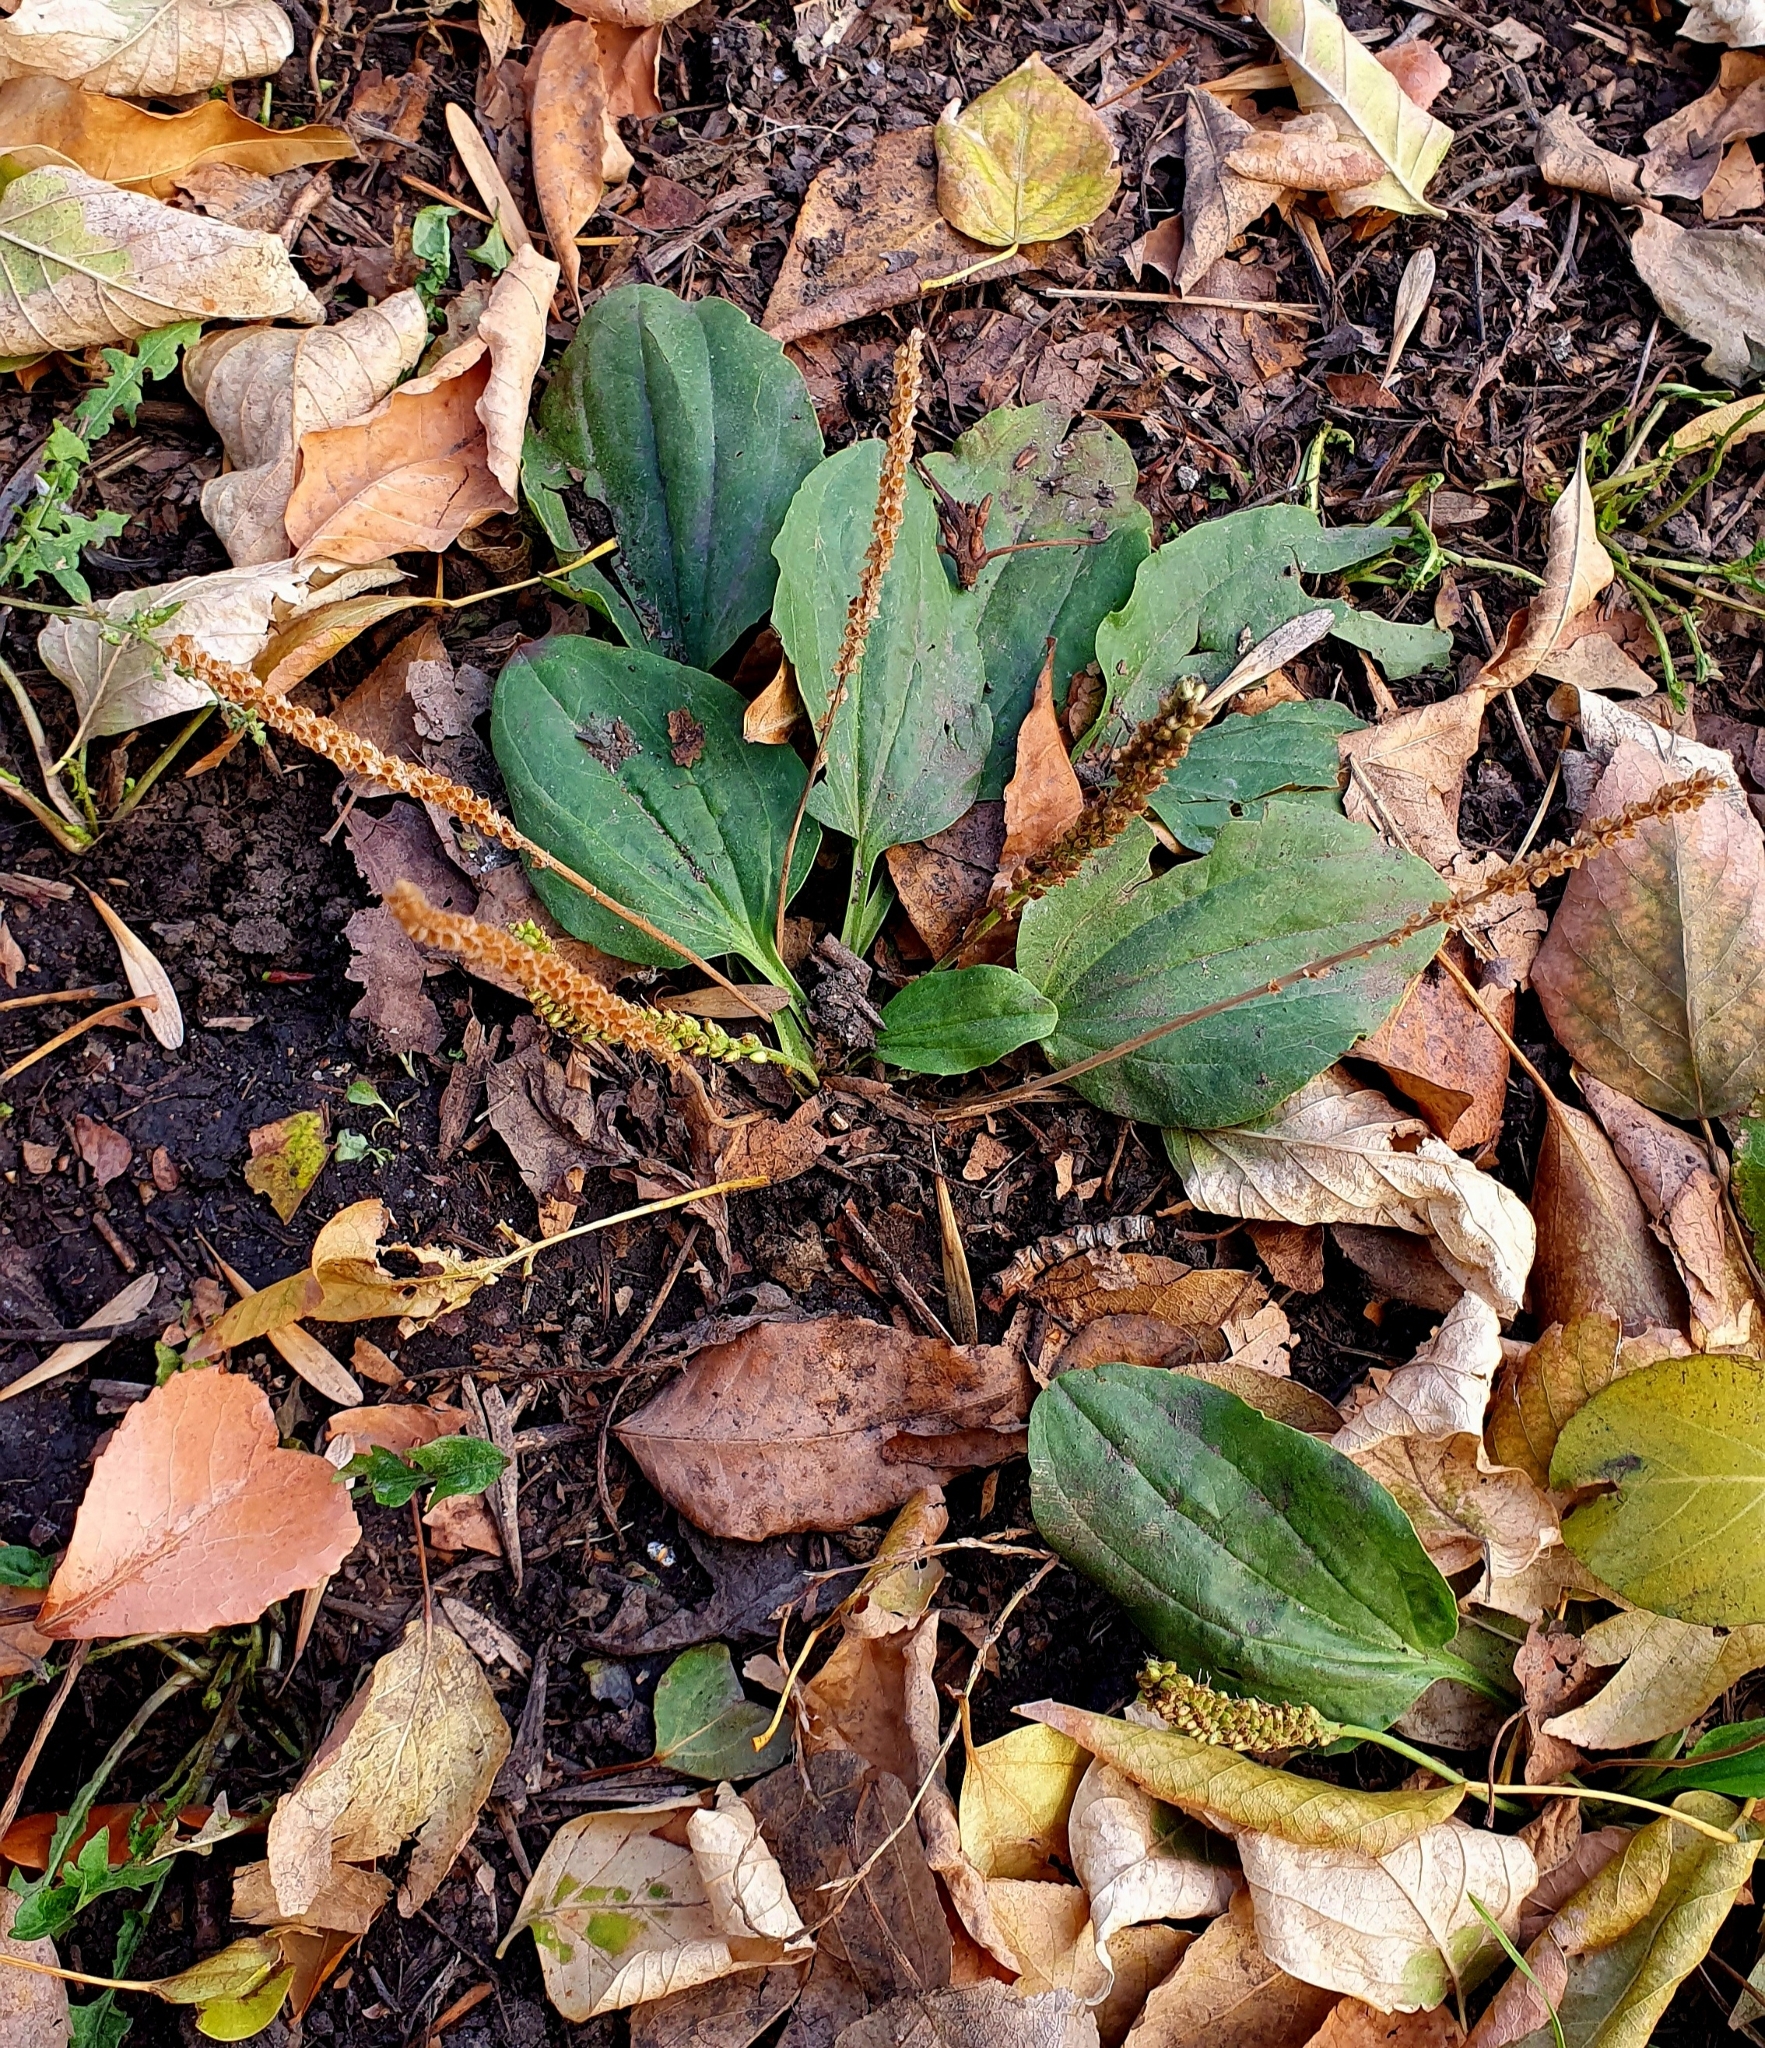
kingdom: Plantae
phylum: Tracheophyta
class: Magnoliopsida
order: Lamiales
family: Plantaginaceae
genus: Plantago
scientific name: Plantago major
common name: Common plantain
